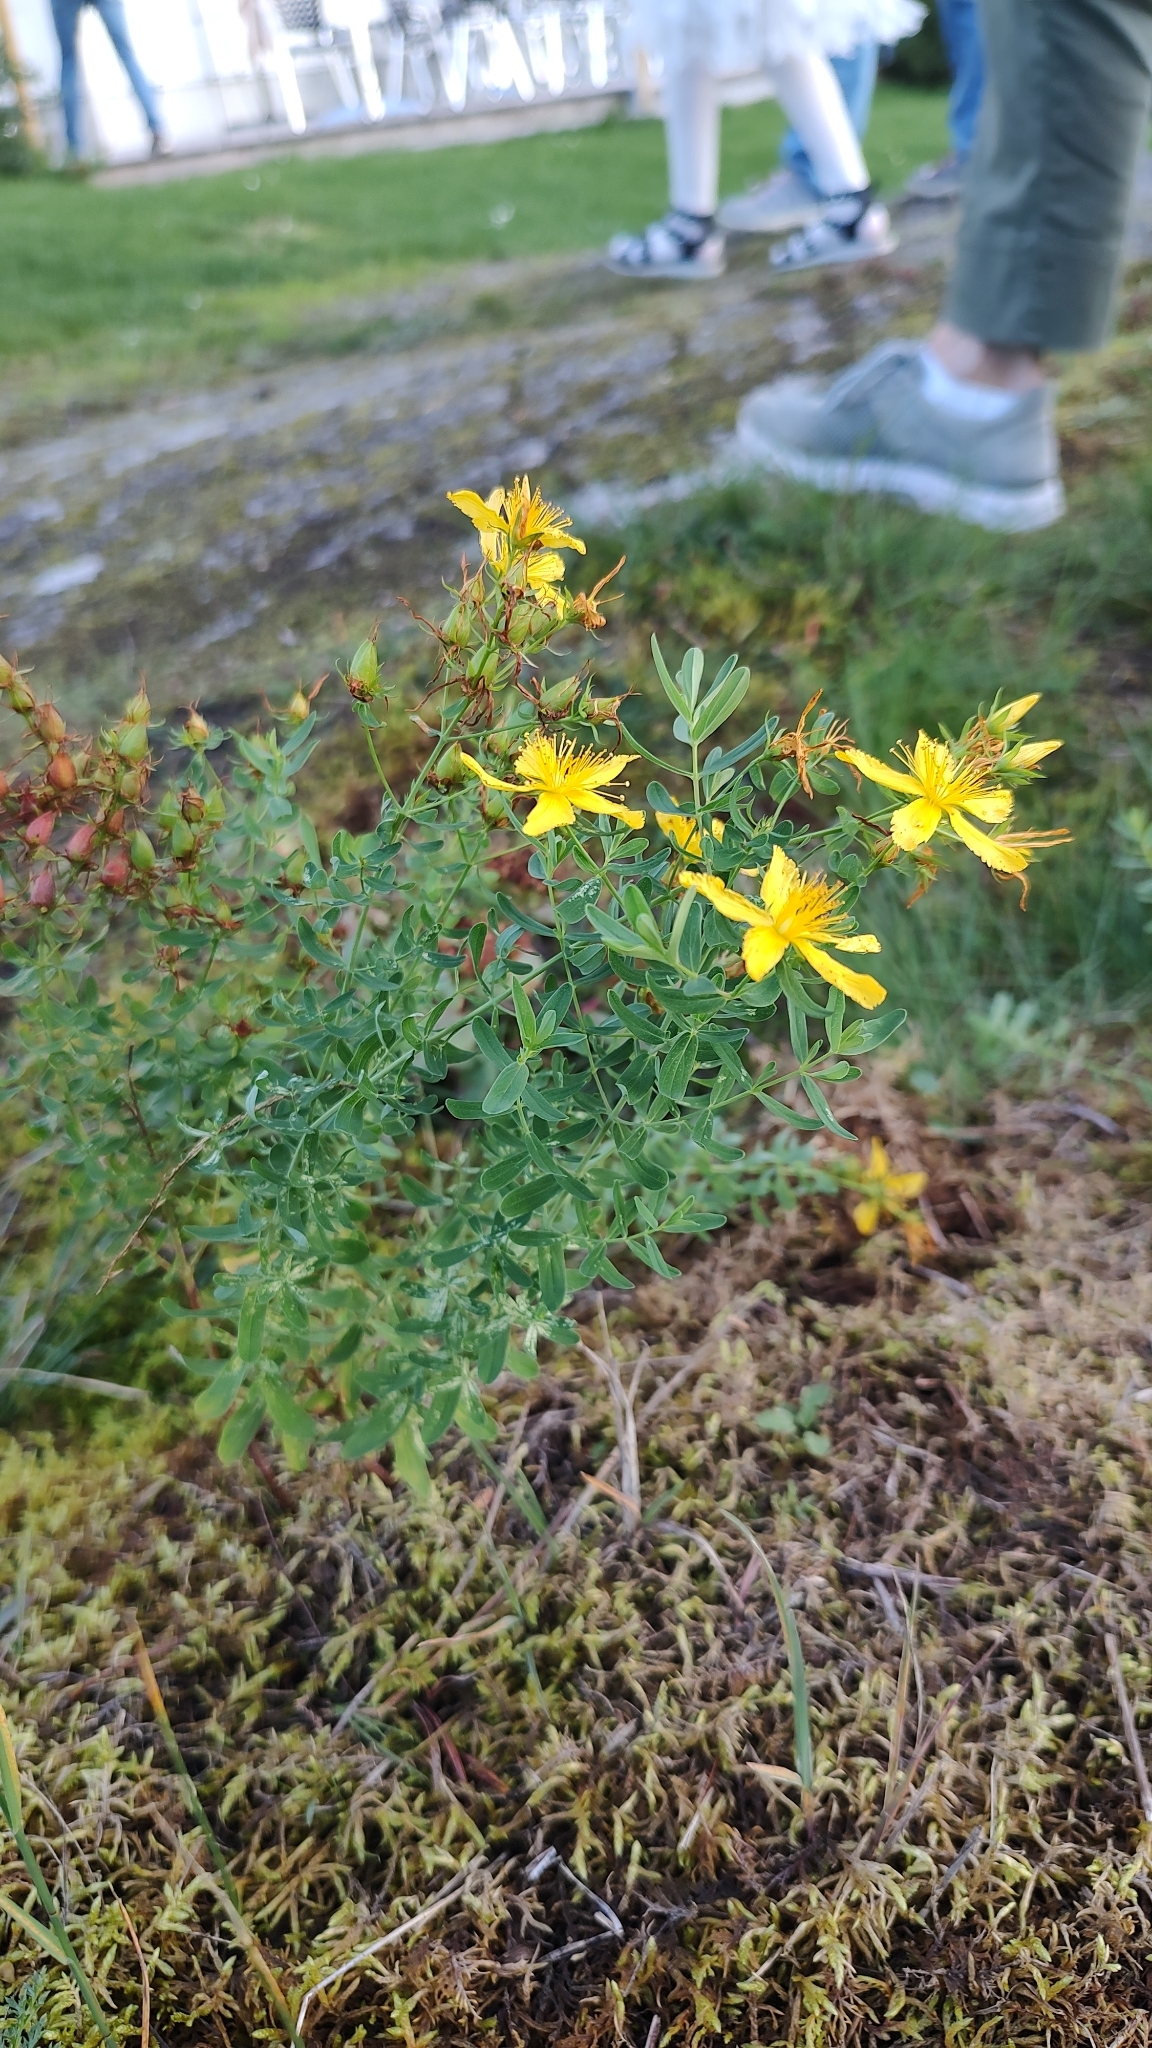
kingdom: Plantae
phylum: Tracheophyta
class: Magnoliopsida
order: Malpighiales
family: Hypericaceae
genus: Hypericum
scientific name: Hypericum perforatum
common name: Common st. johnswort
